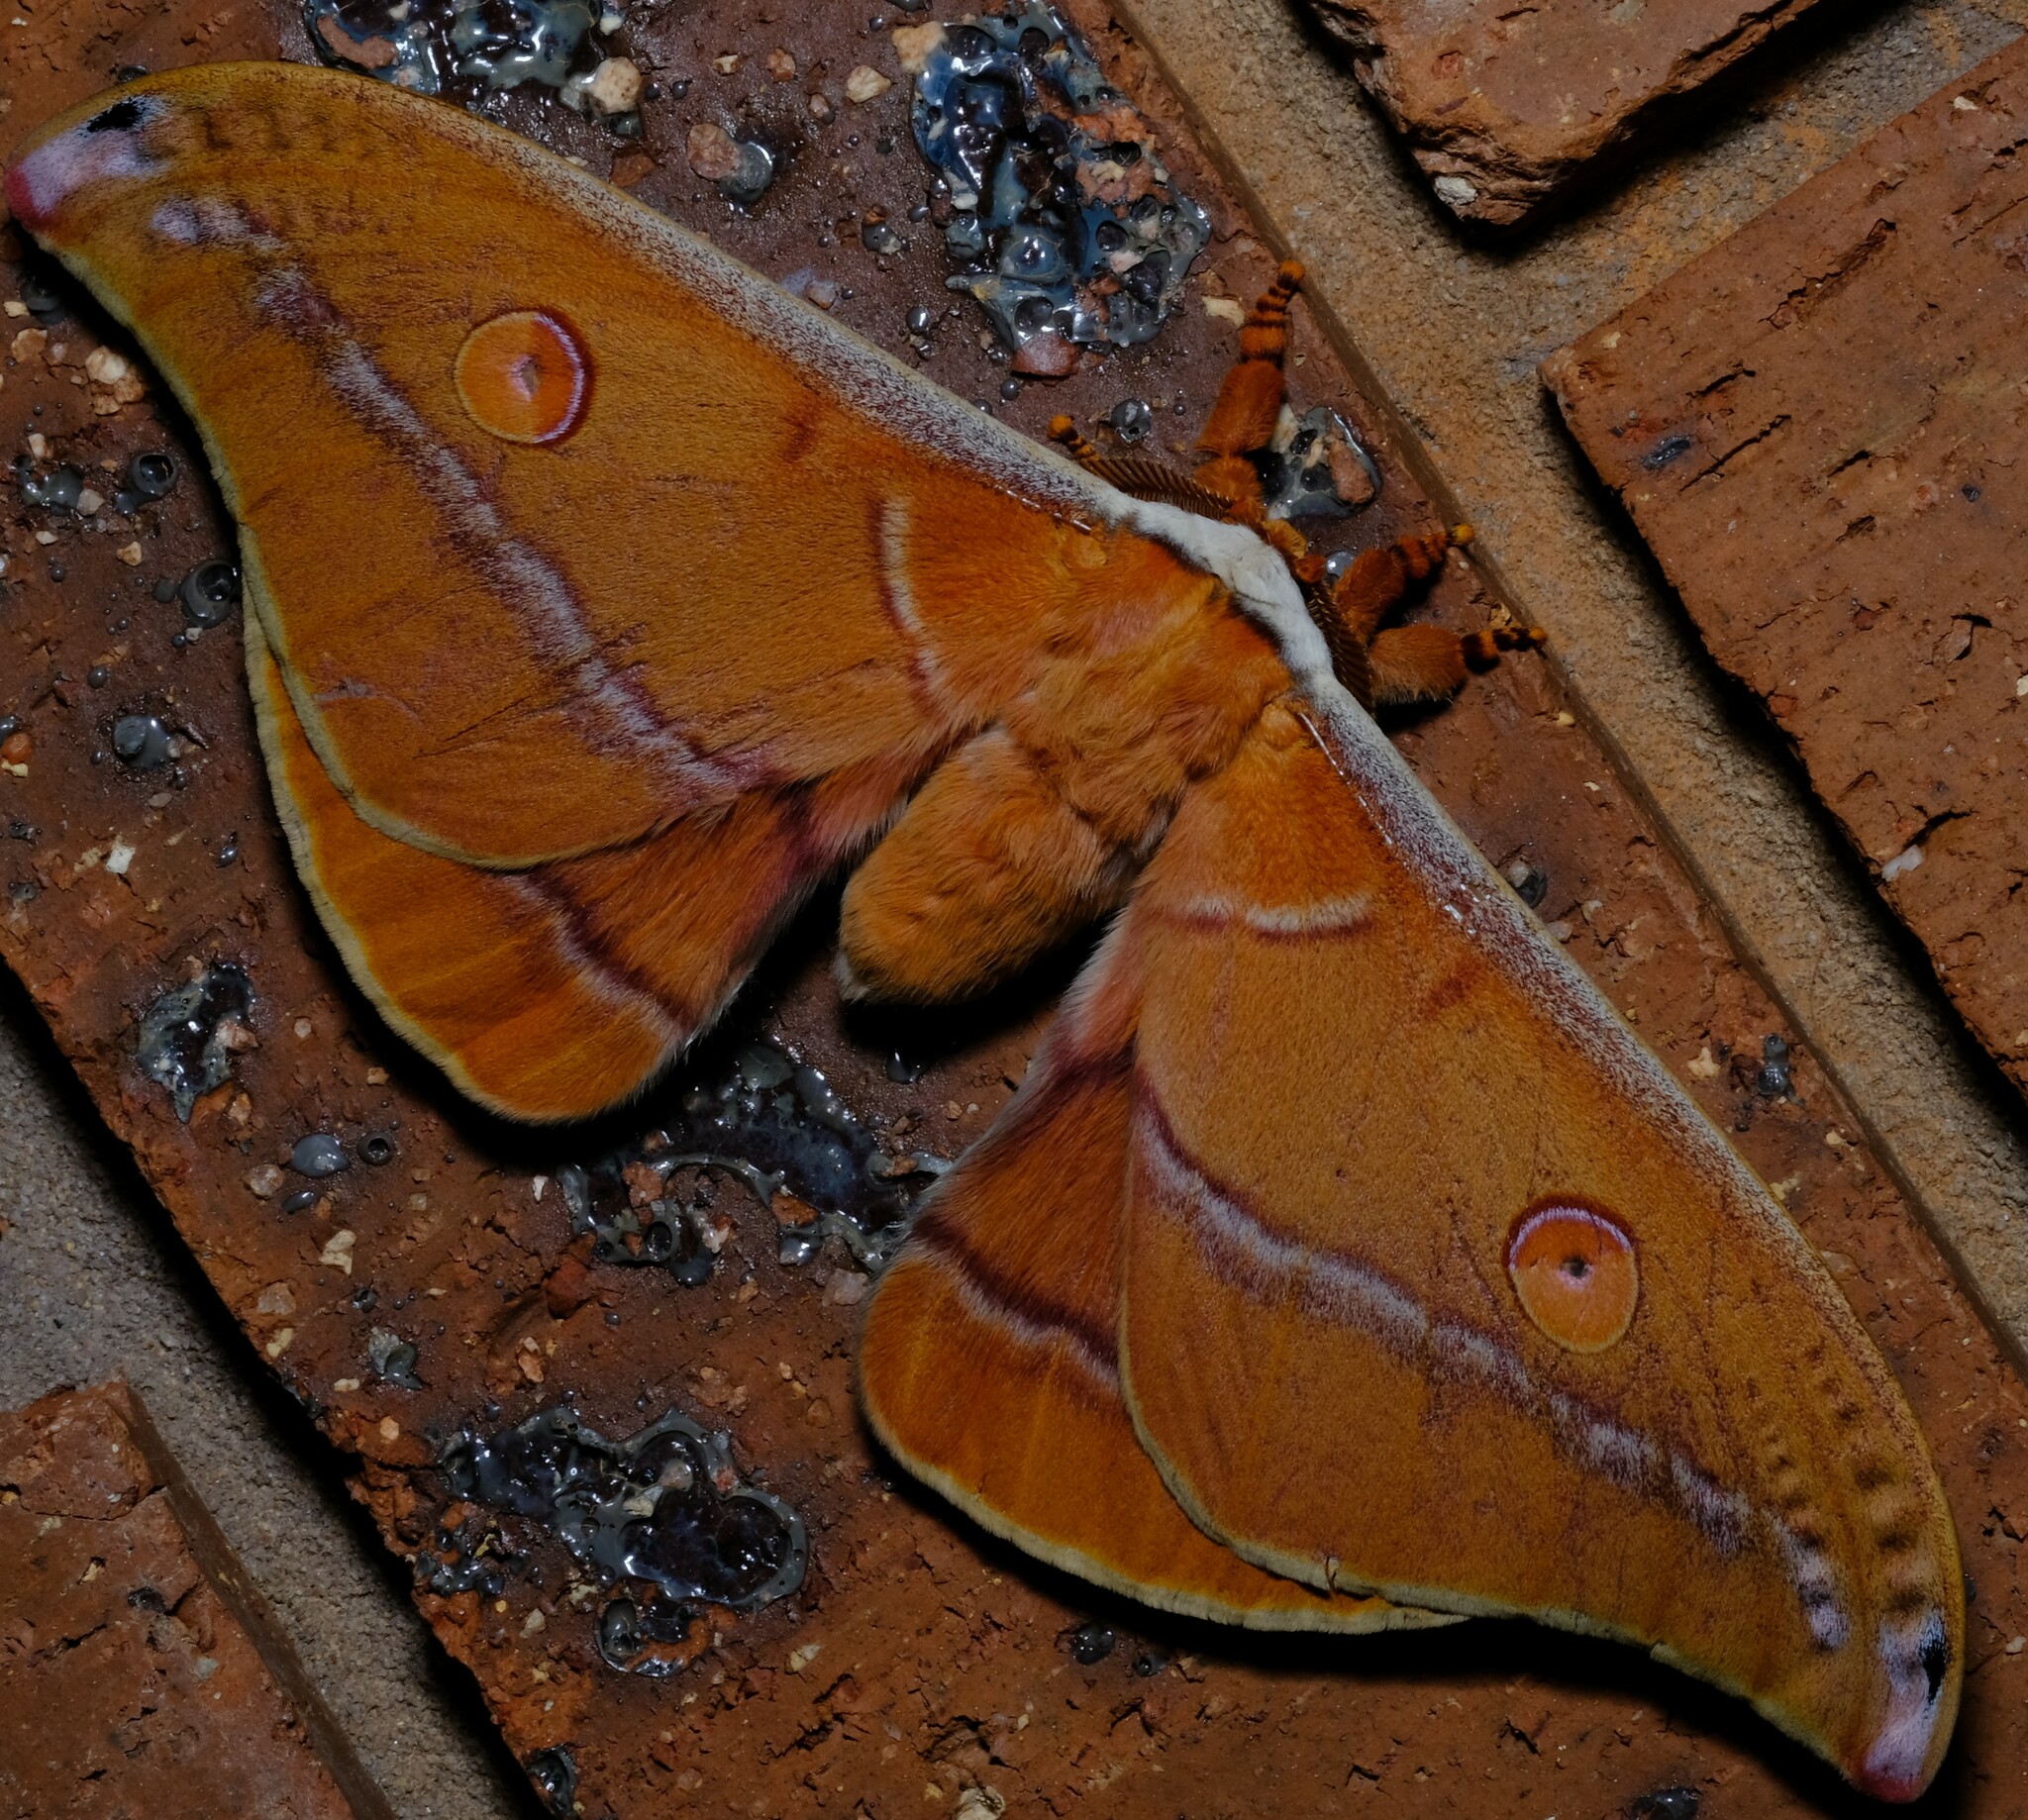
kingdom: Animalia
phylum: Arthropoda
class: Insecta
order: Lepidoptera
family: Saturniidae
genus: Opodiphthera
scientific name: Opodiphthera
